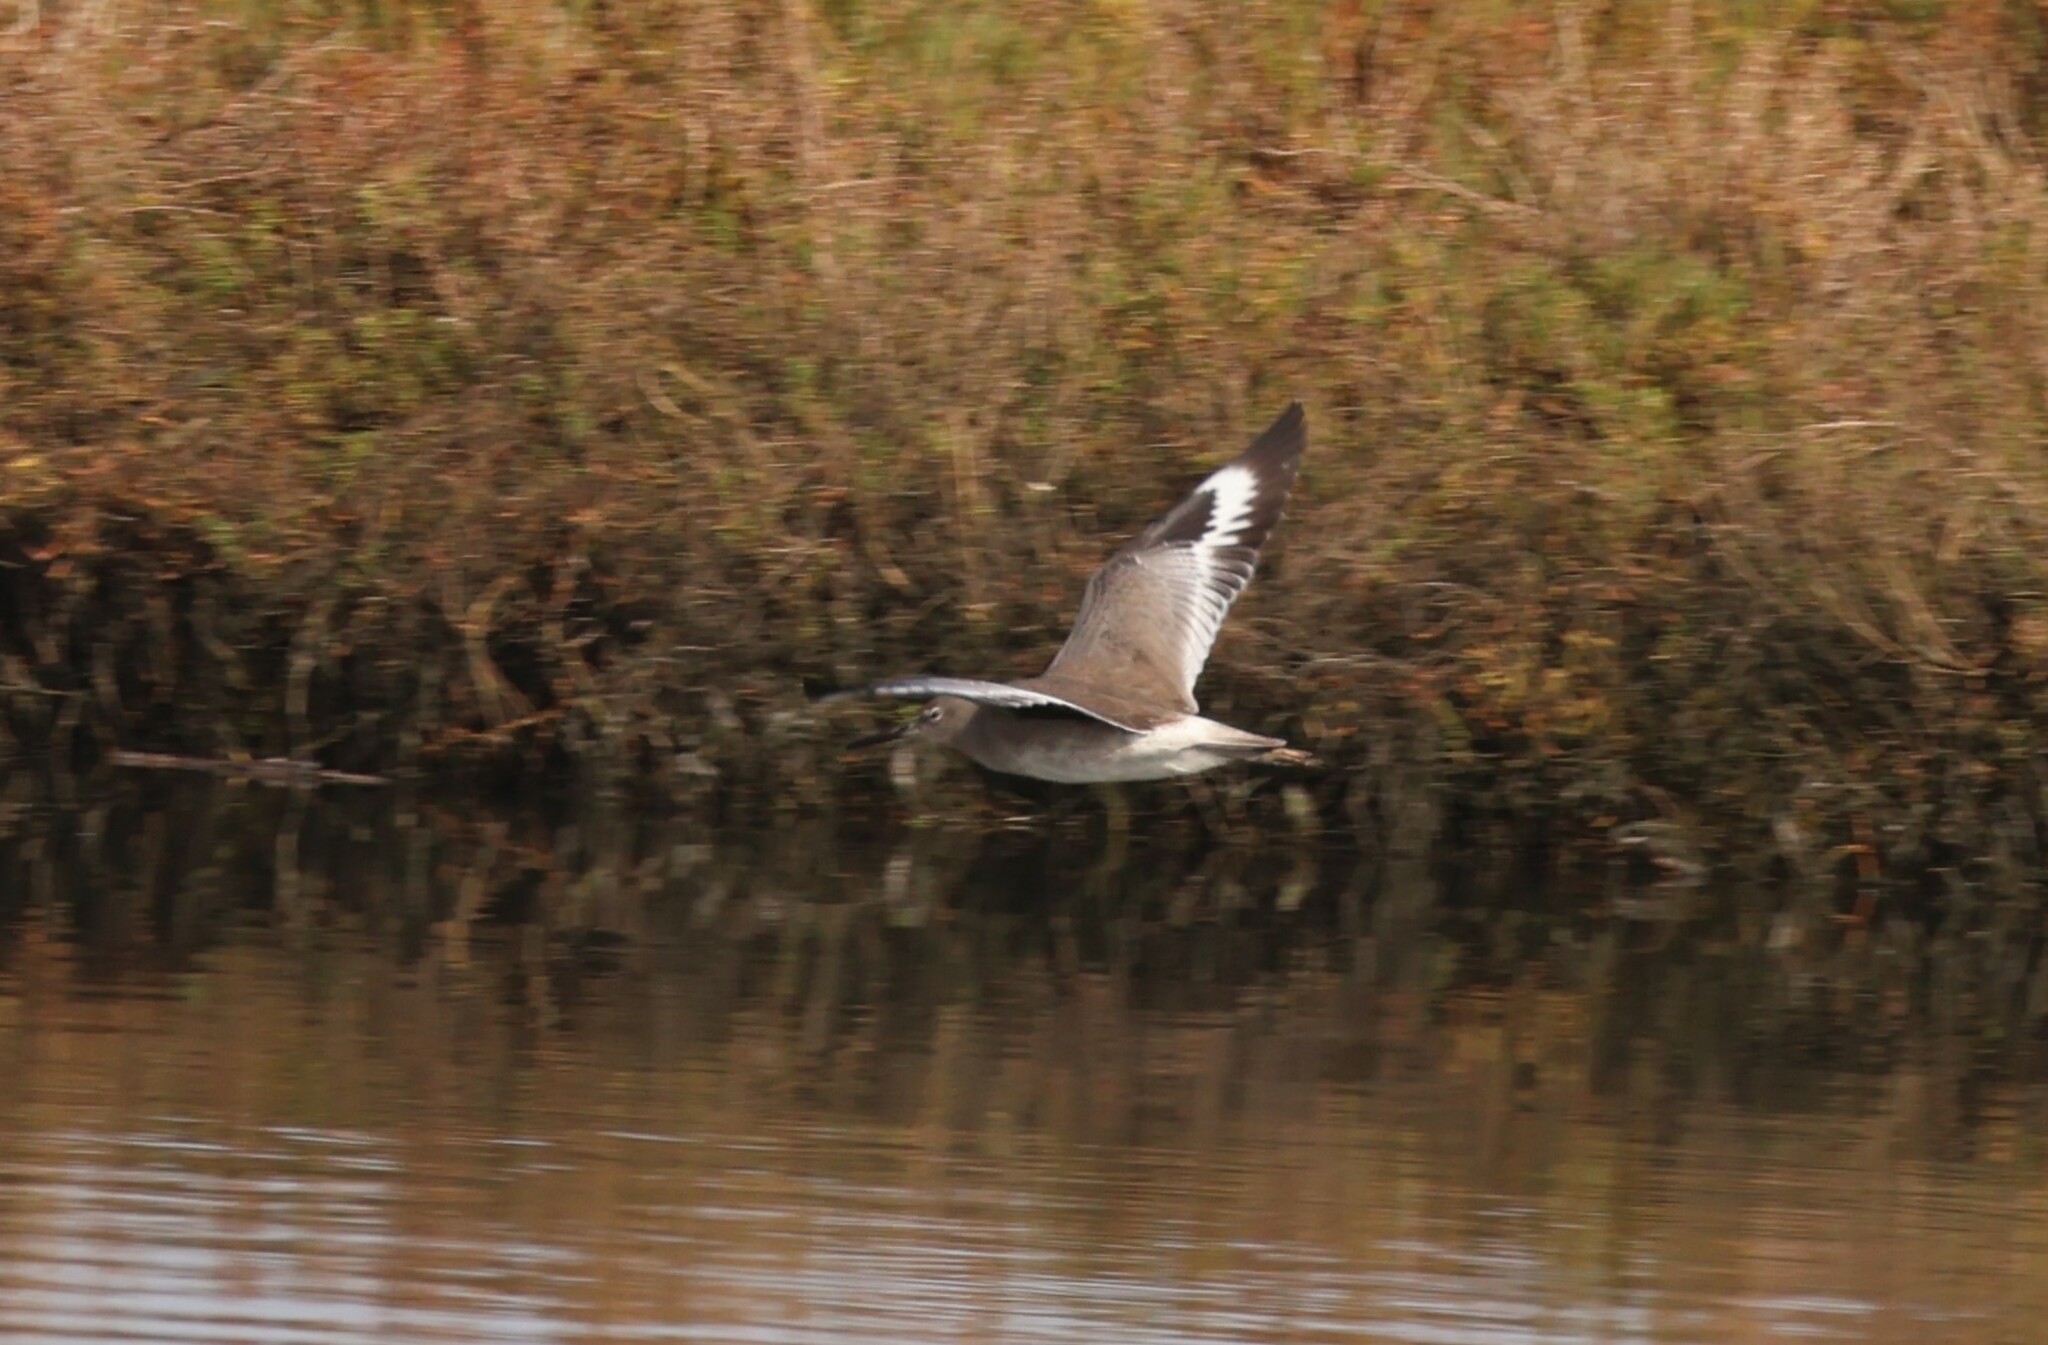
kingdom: Animalia
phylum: Chordata
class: Aves
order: Charadriiformes
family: Scolopacidae
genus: Tringa
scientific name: Tringa semipalmata
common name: Willet
